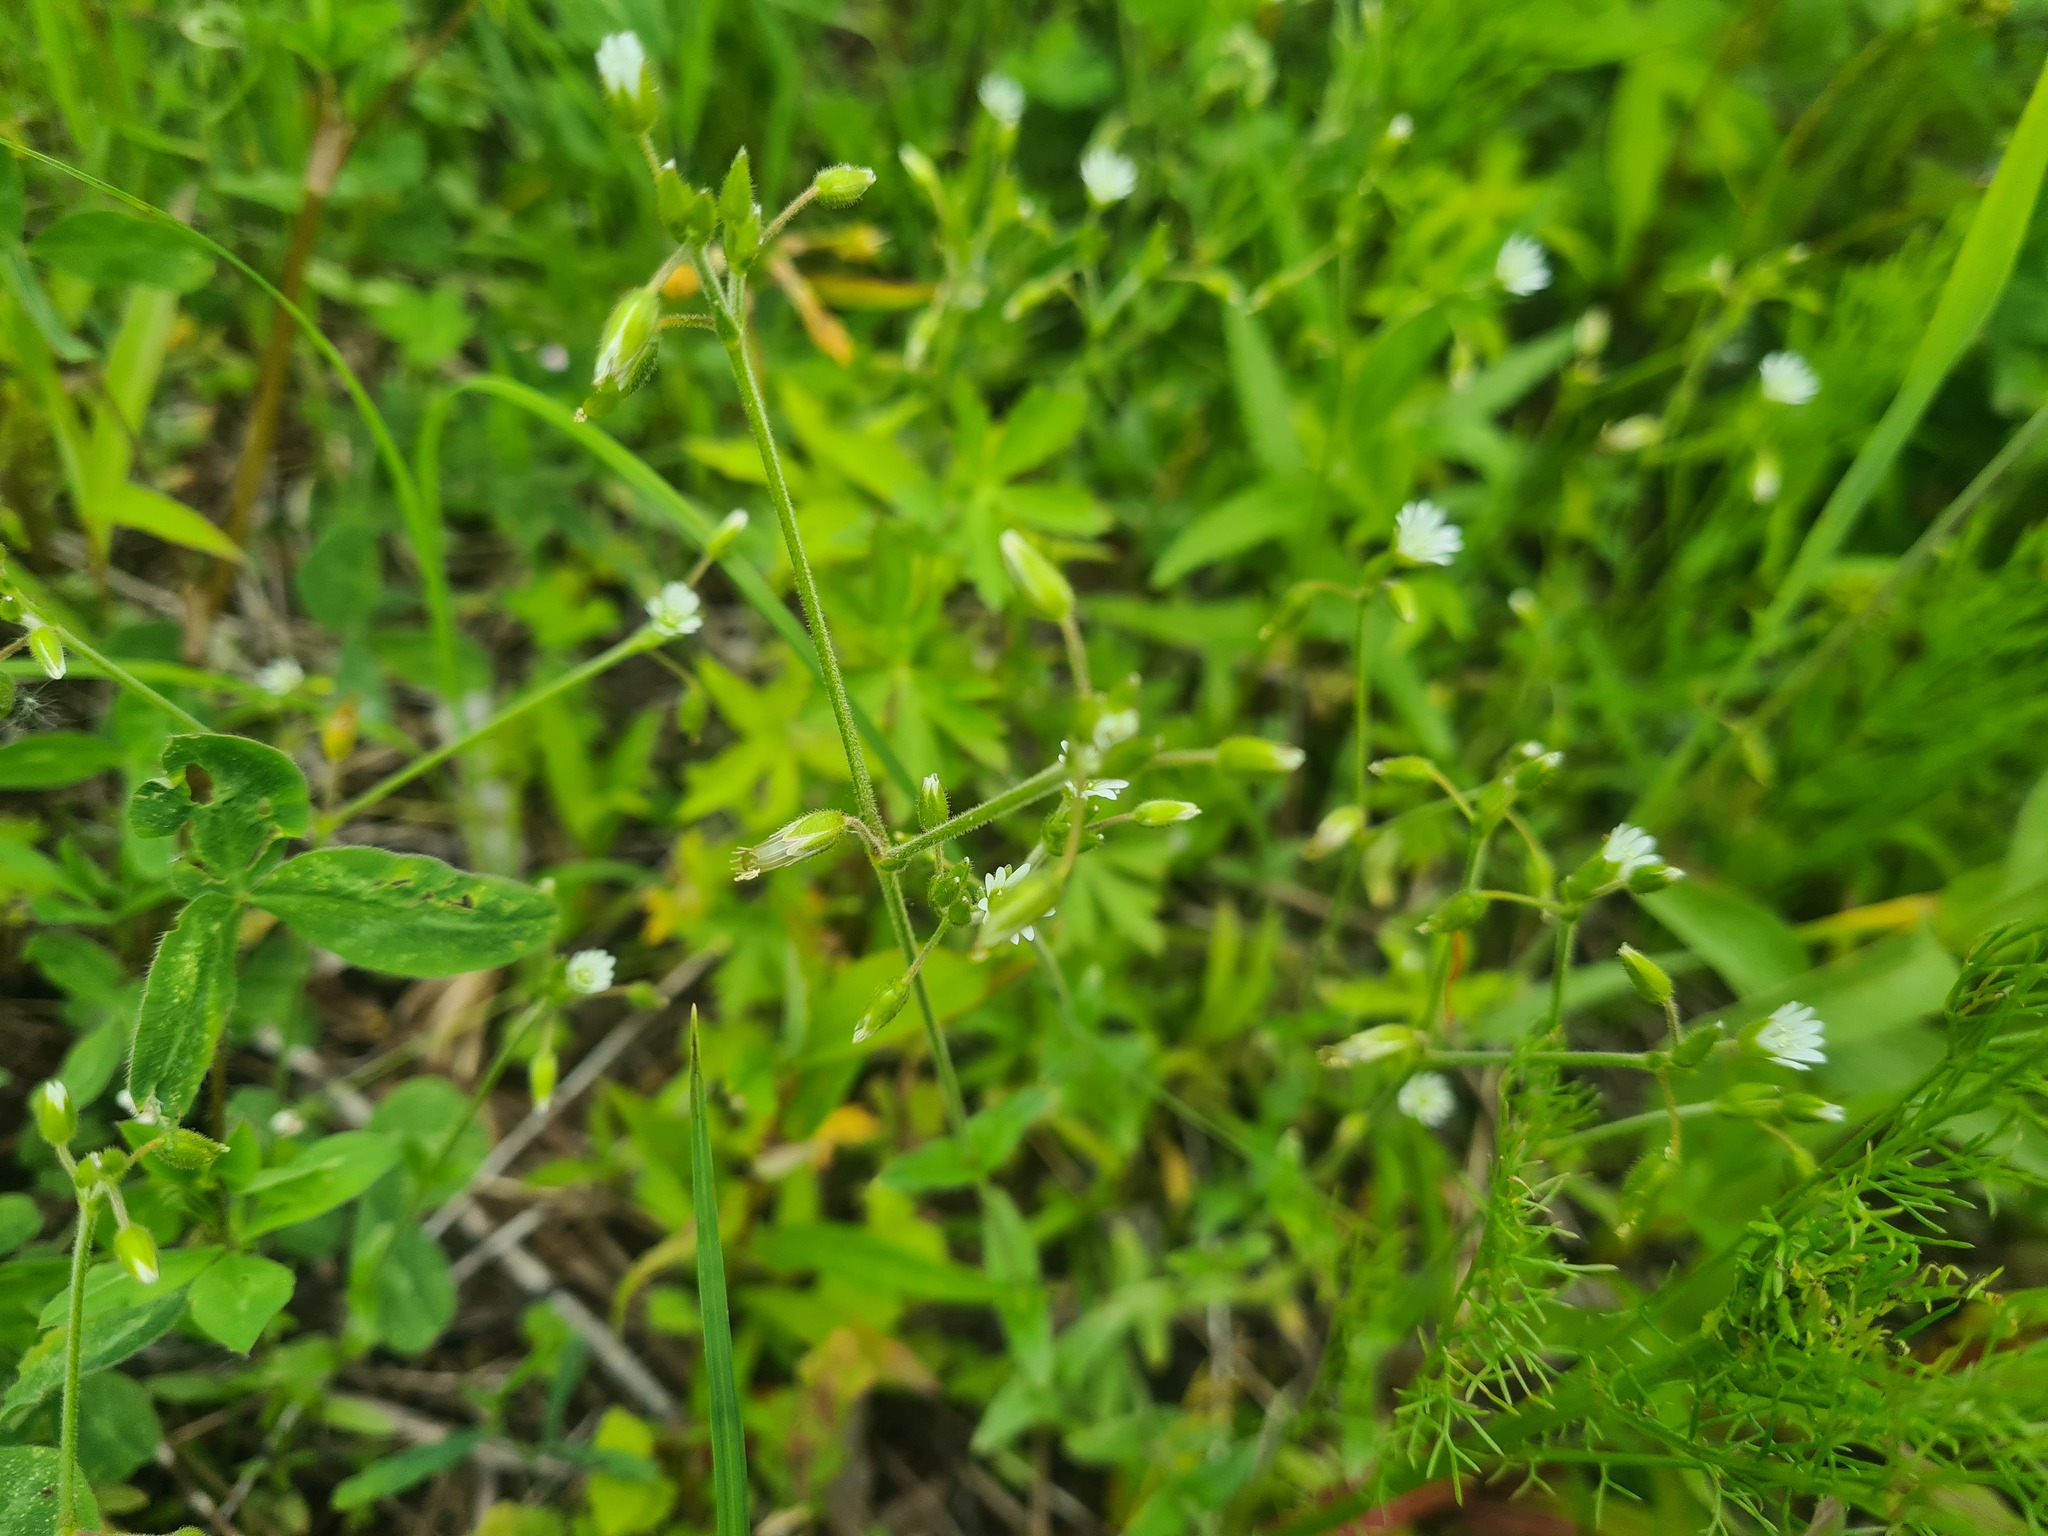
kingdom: Plantae
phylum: Tracheophyta
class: Magnoliopsida
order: Caryophyllales
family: Caryophyllaceae
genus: Cerastium
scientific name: Cerastium holosteoides
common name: Big chickweed
